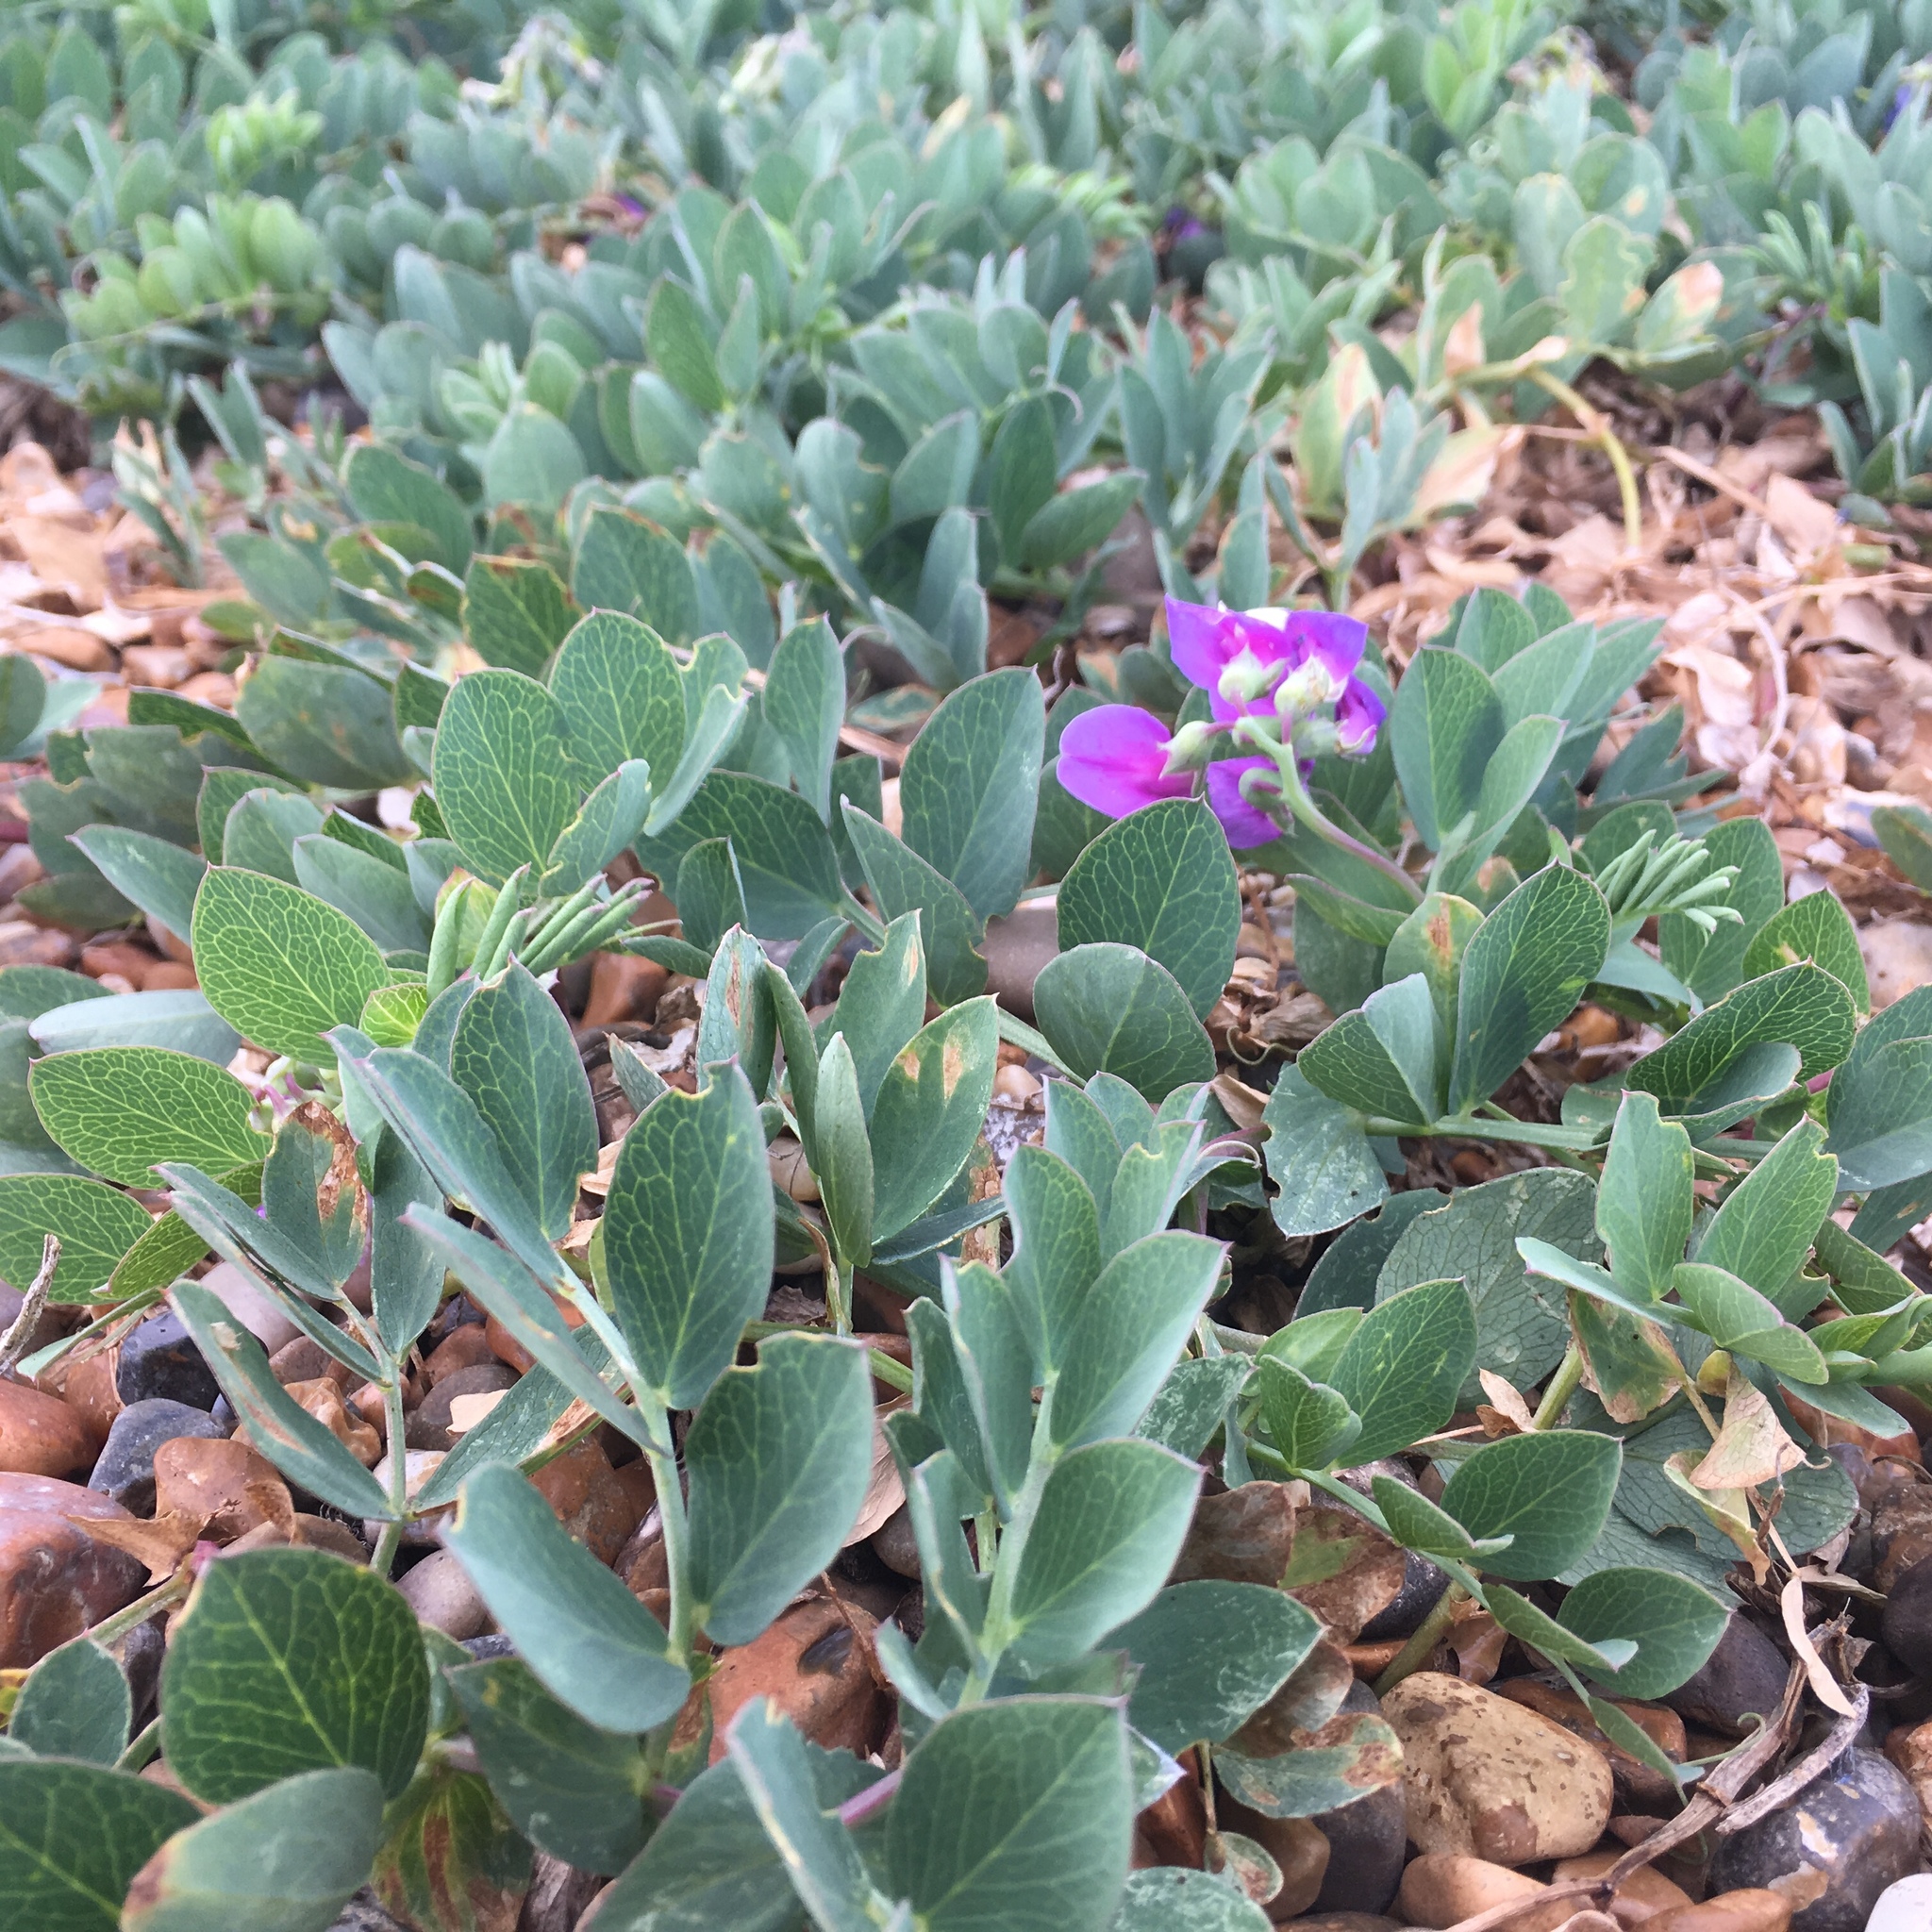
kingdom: Plantae
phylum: Tracheophyta
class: Magnoliopsida
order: Fabales
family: Fabaceae
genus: Lathyrus
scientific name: Lathyrus japonicus
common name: Sea pea
